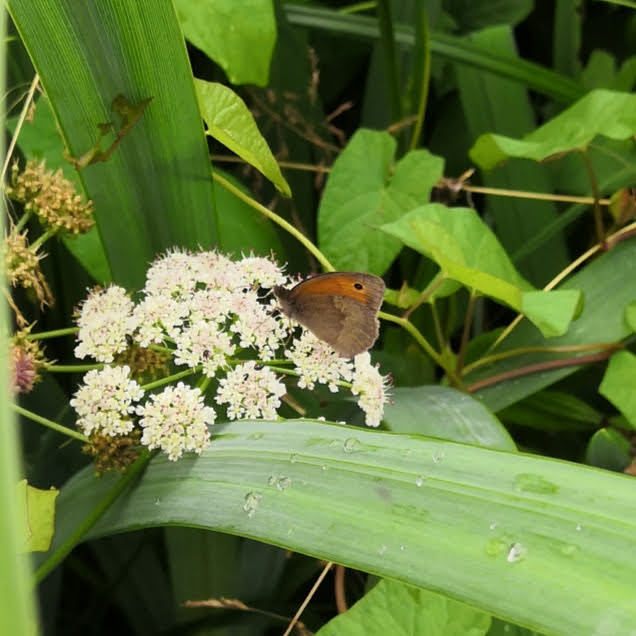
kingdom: Animalia
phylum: Arthropoda
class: Insecta
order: Lepidoptera
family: Nymphalidae
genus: Maniola
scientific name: Maniola jurtina
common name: Meadow brown
